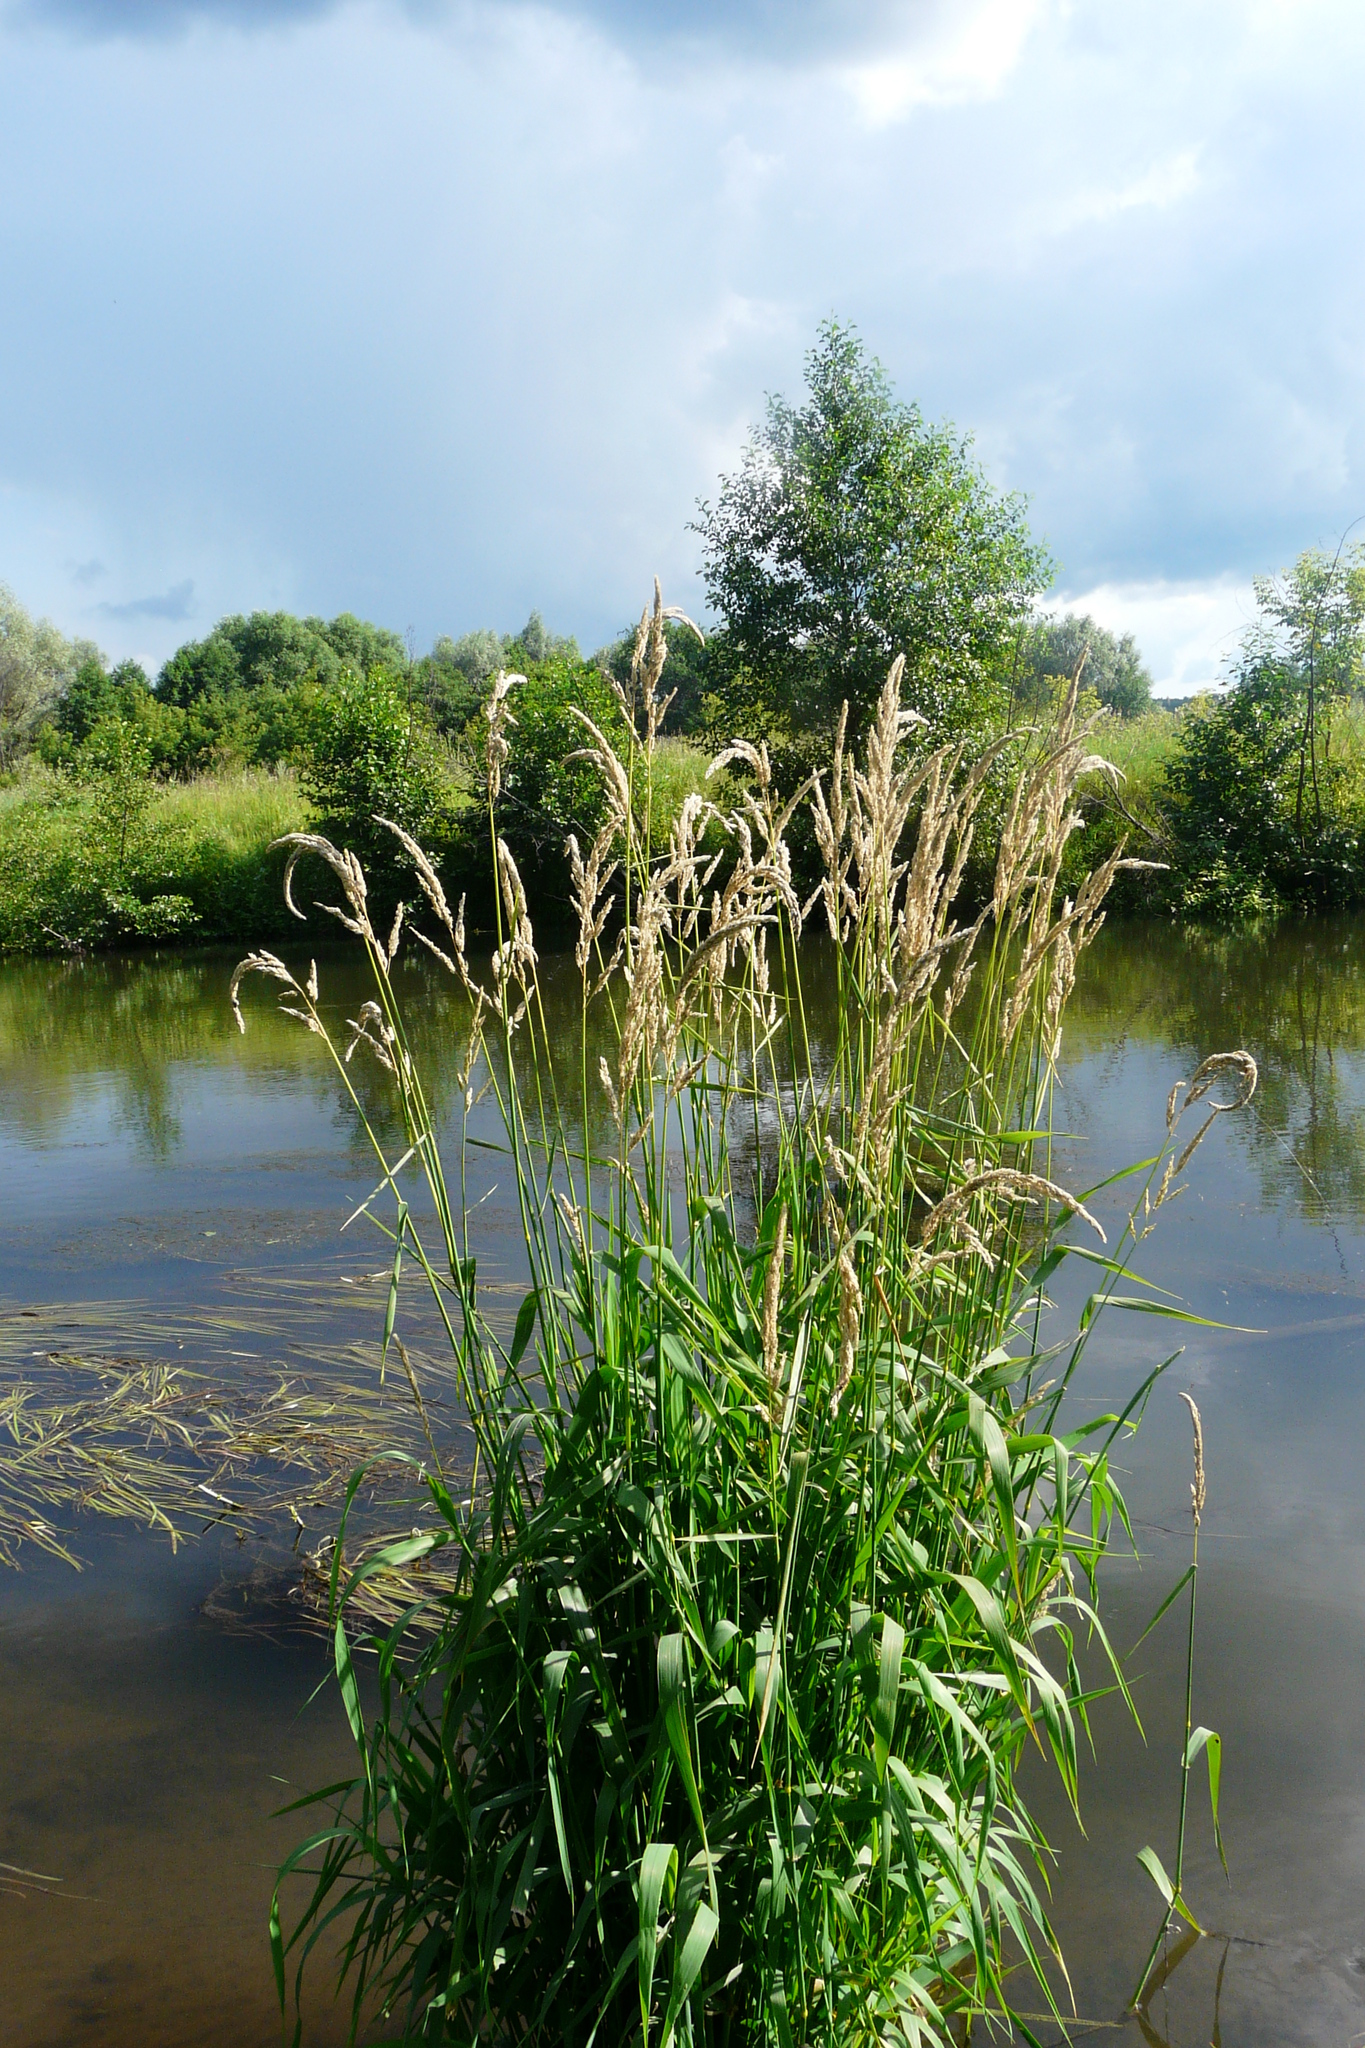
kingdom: Plantae
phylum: Tracheophyta
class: Liliopsida
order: Poales
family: Poaceae
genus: Phalaris
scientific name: Phalaris arundinacea
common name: Reed canary-grass
